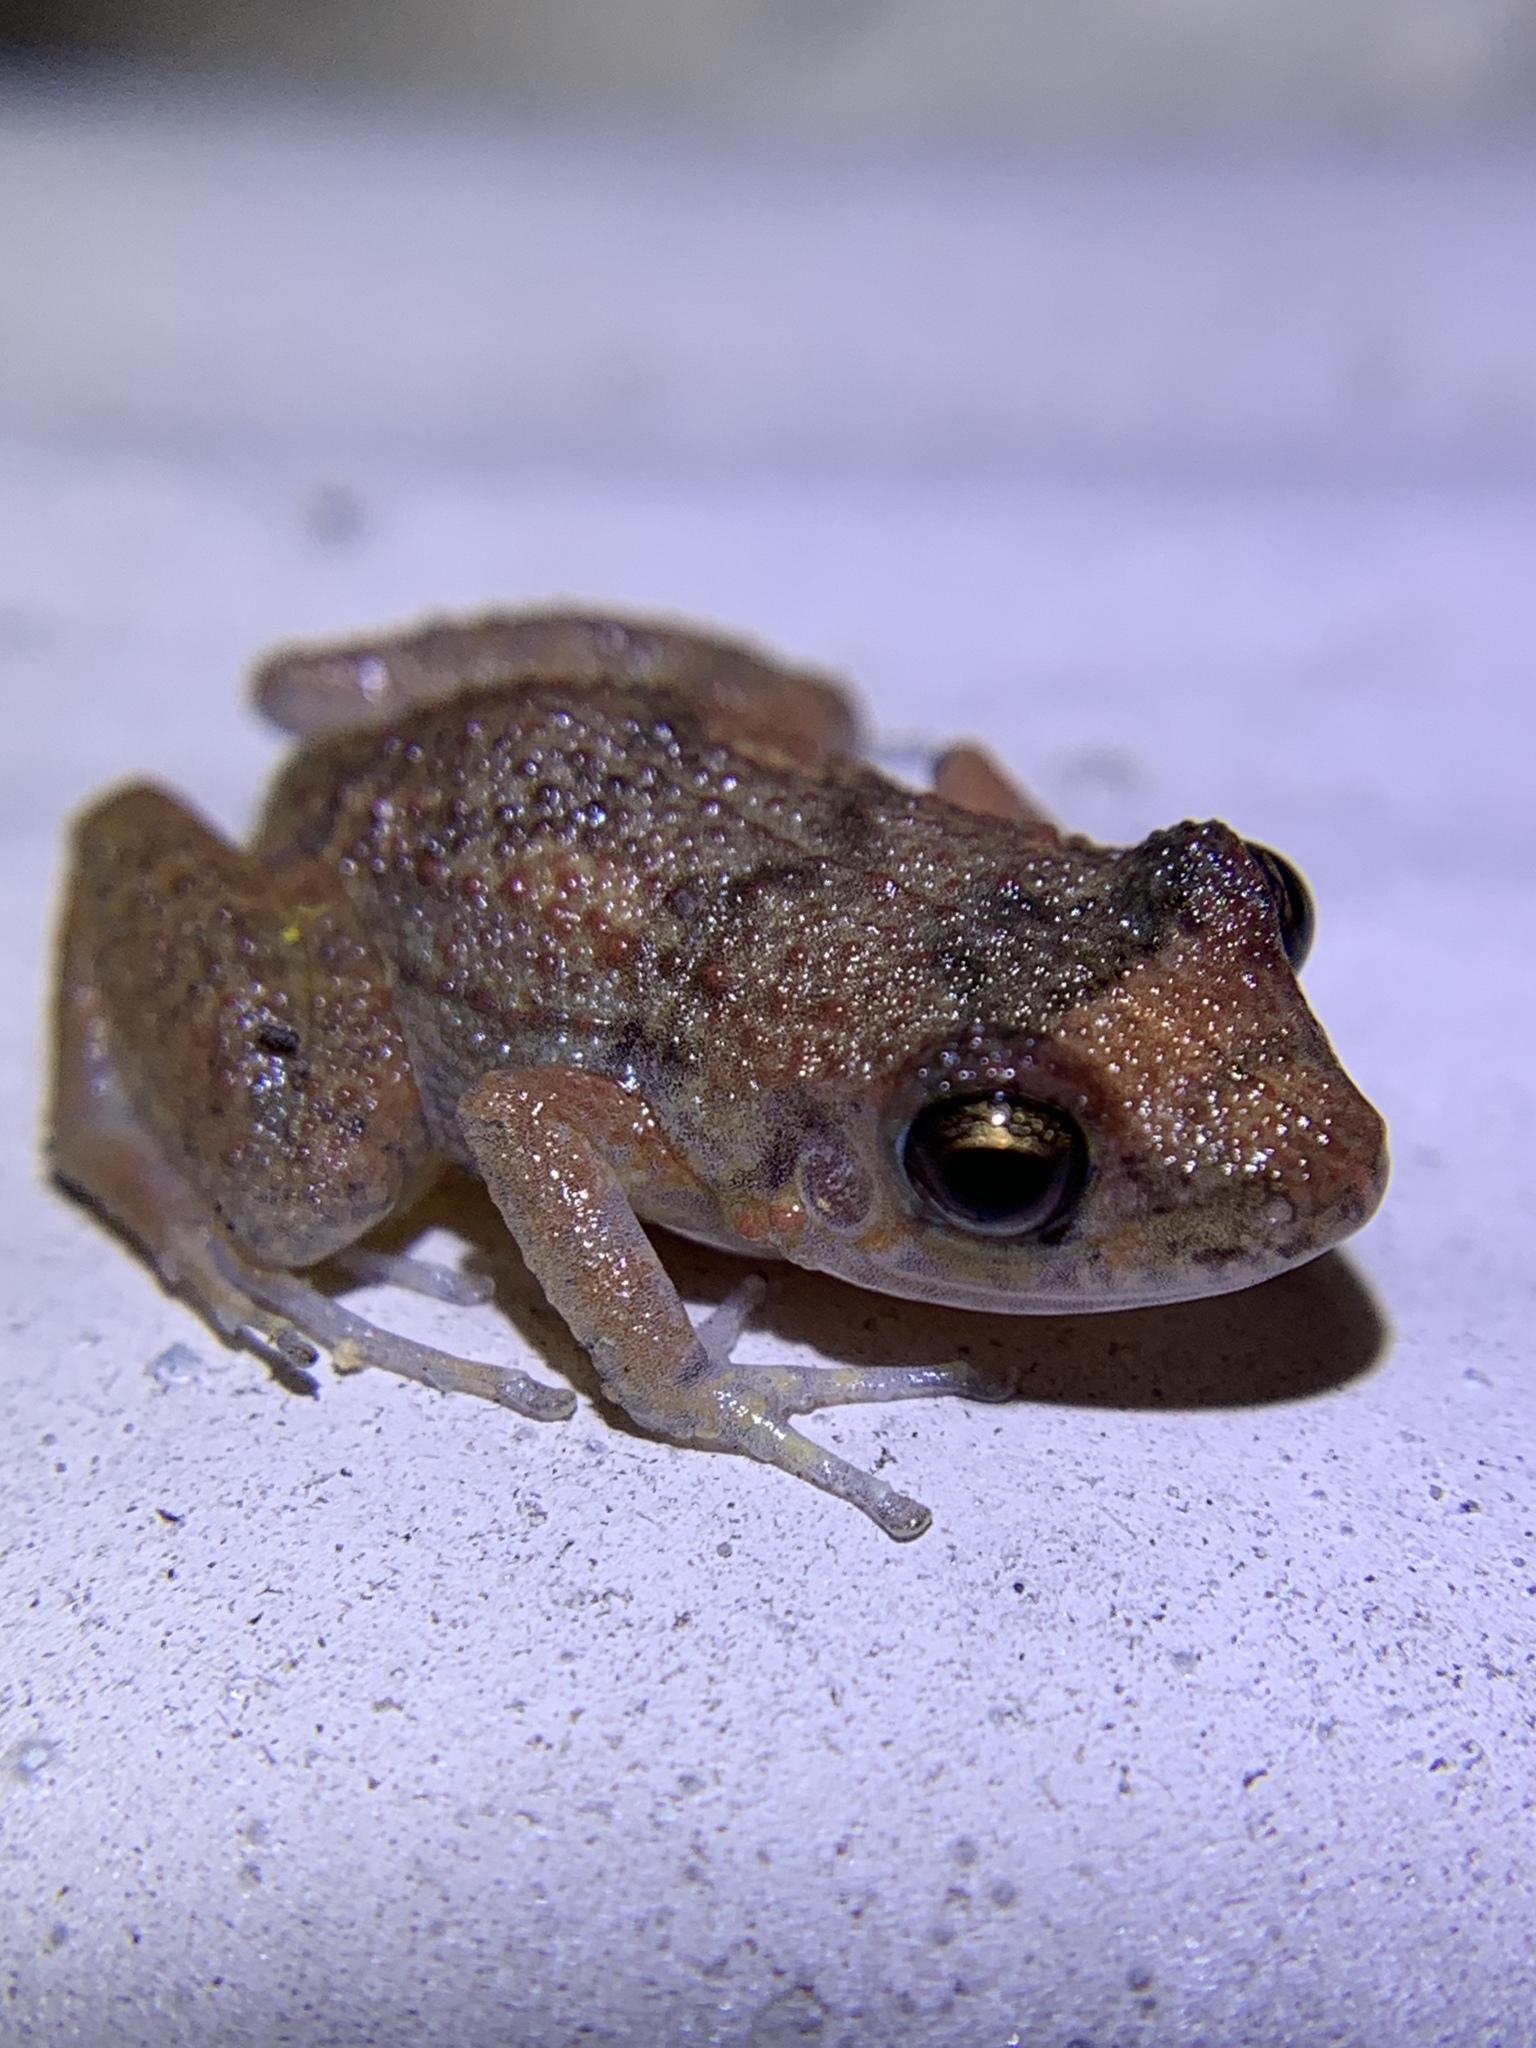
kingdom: Animalia
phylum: Chordata
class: Amphibia
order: Anura
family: Eleutherodactylidae
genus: Eleutherodactylus
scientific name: Eleutherodactylus planirostris
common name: Greenhouse frog
